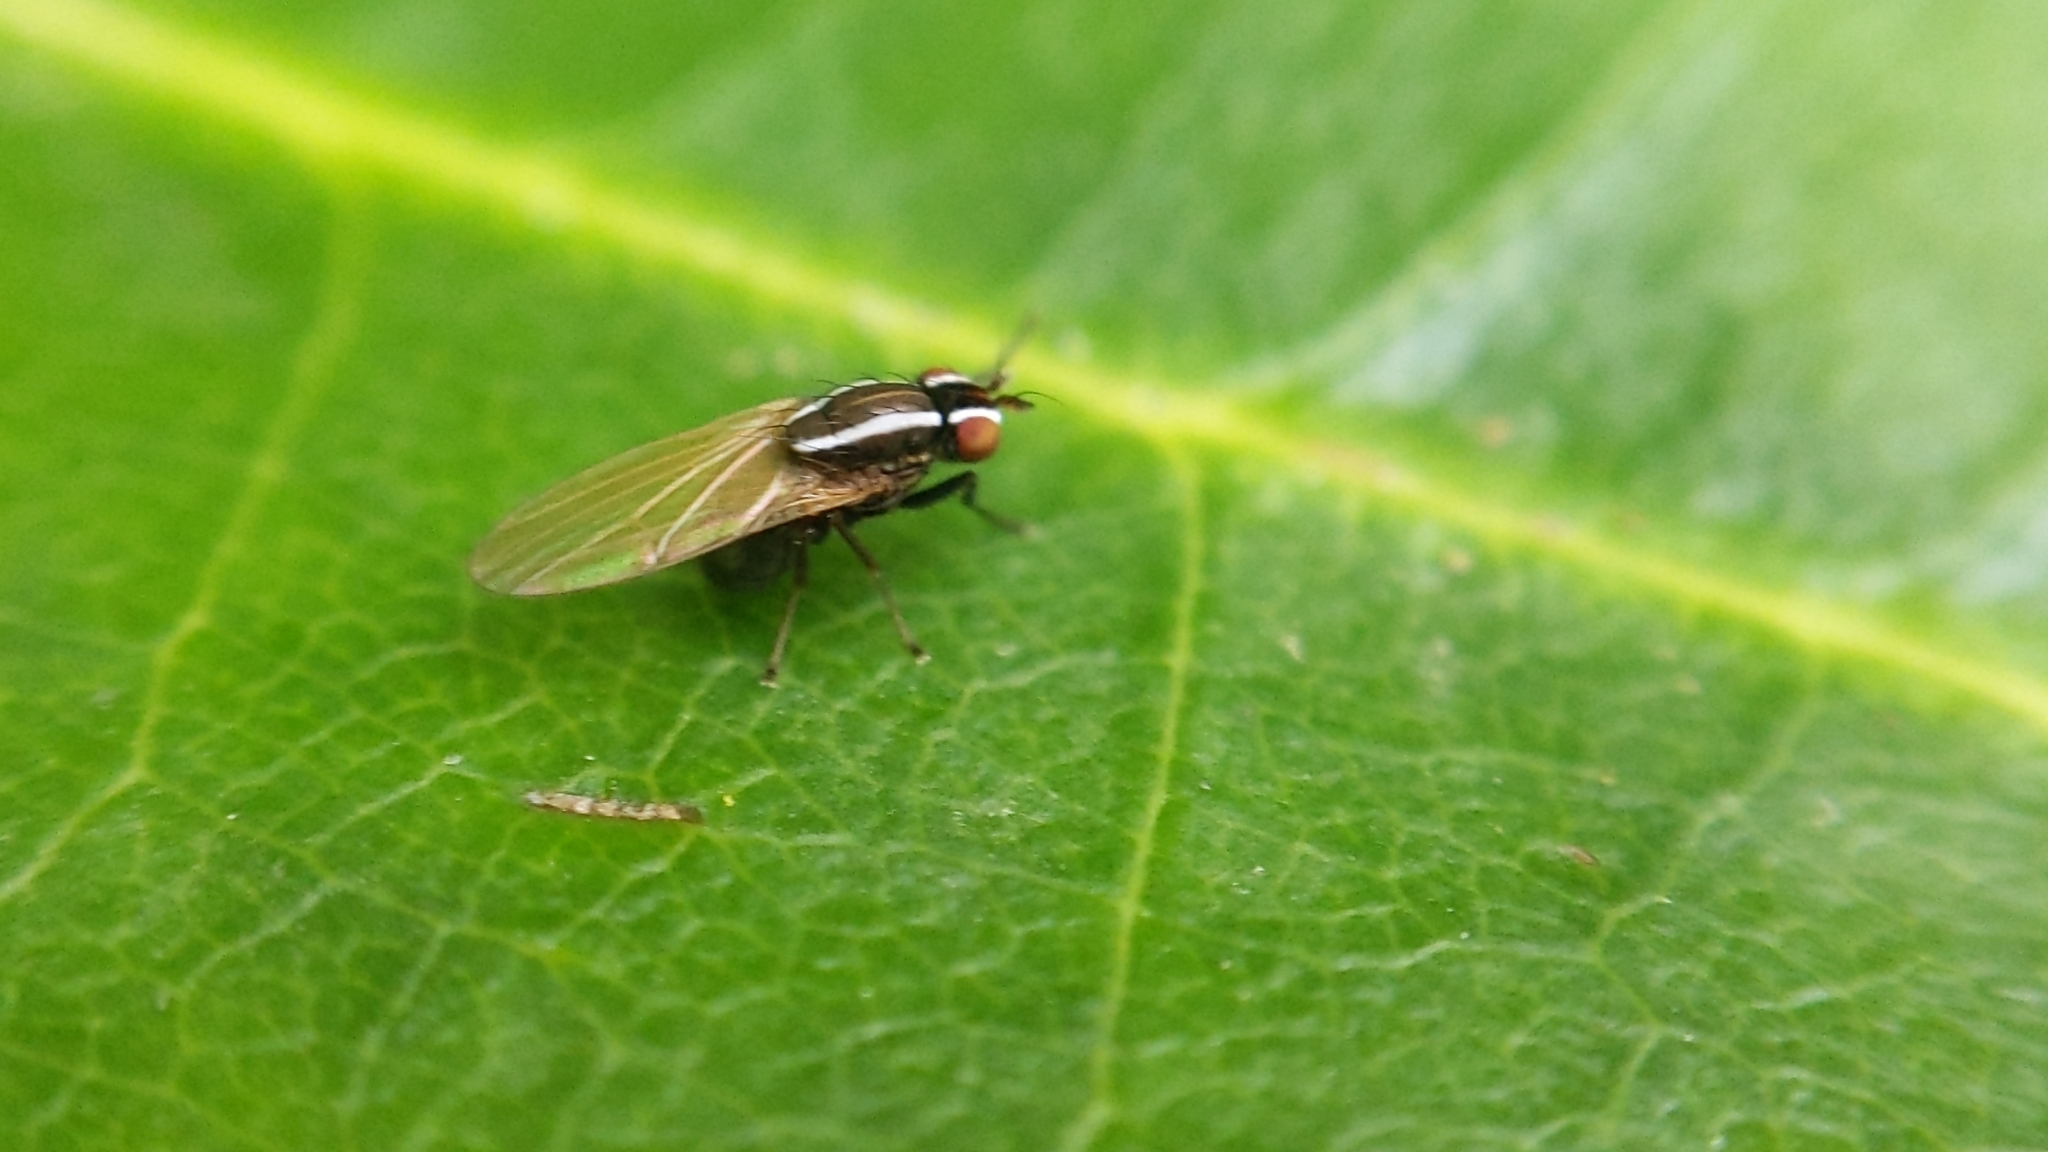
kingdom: Animalia
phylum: Arthropoda
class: Insecta
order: Diptera
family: Lauxaniidae
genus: Poecilohetaerus
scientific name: Poecilohetaerus aquilus
